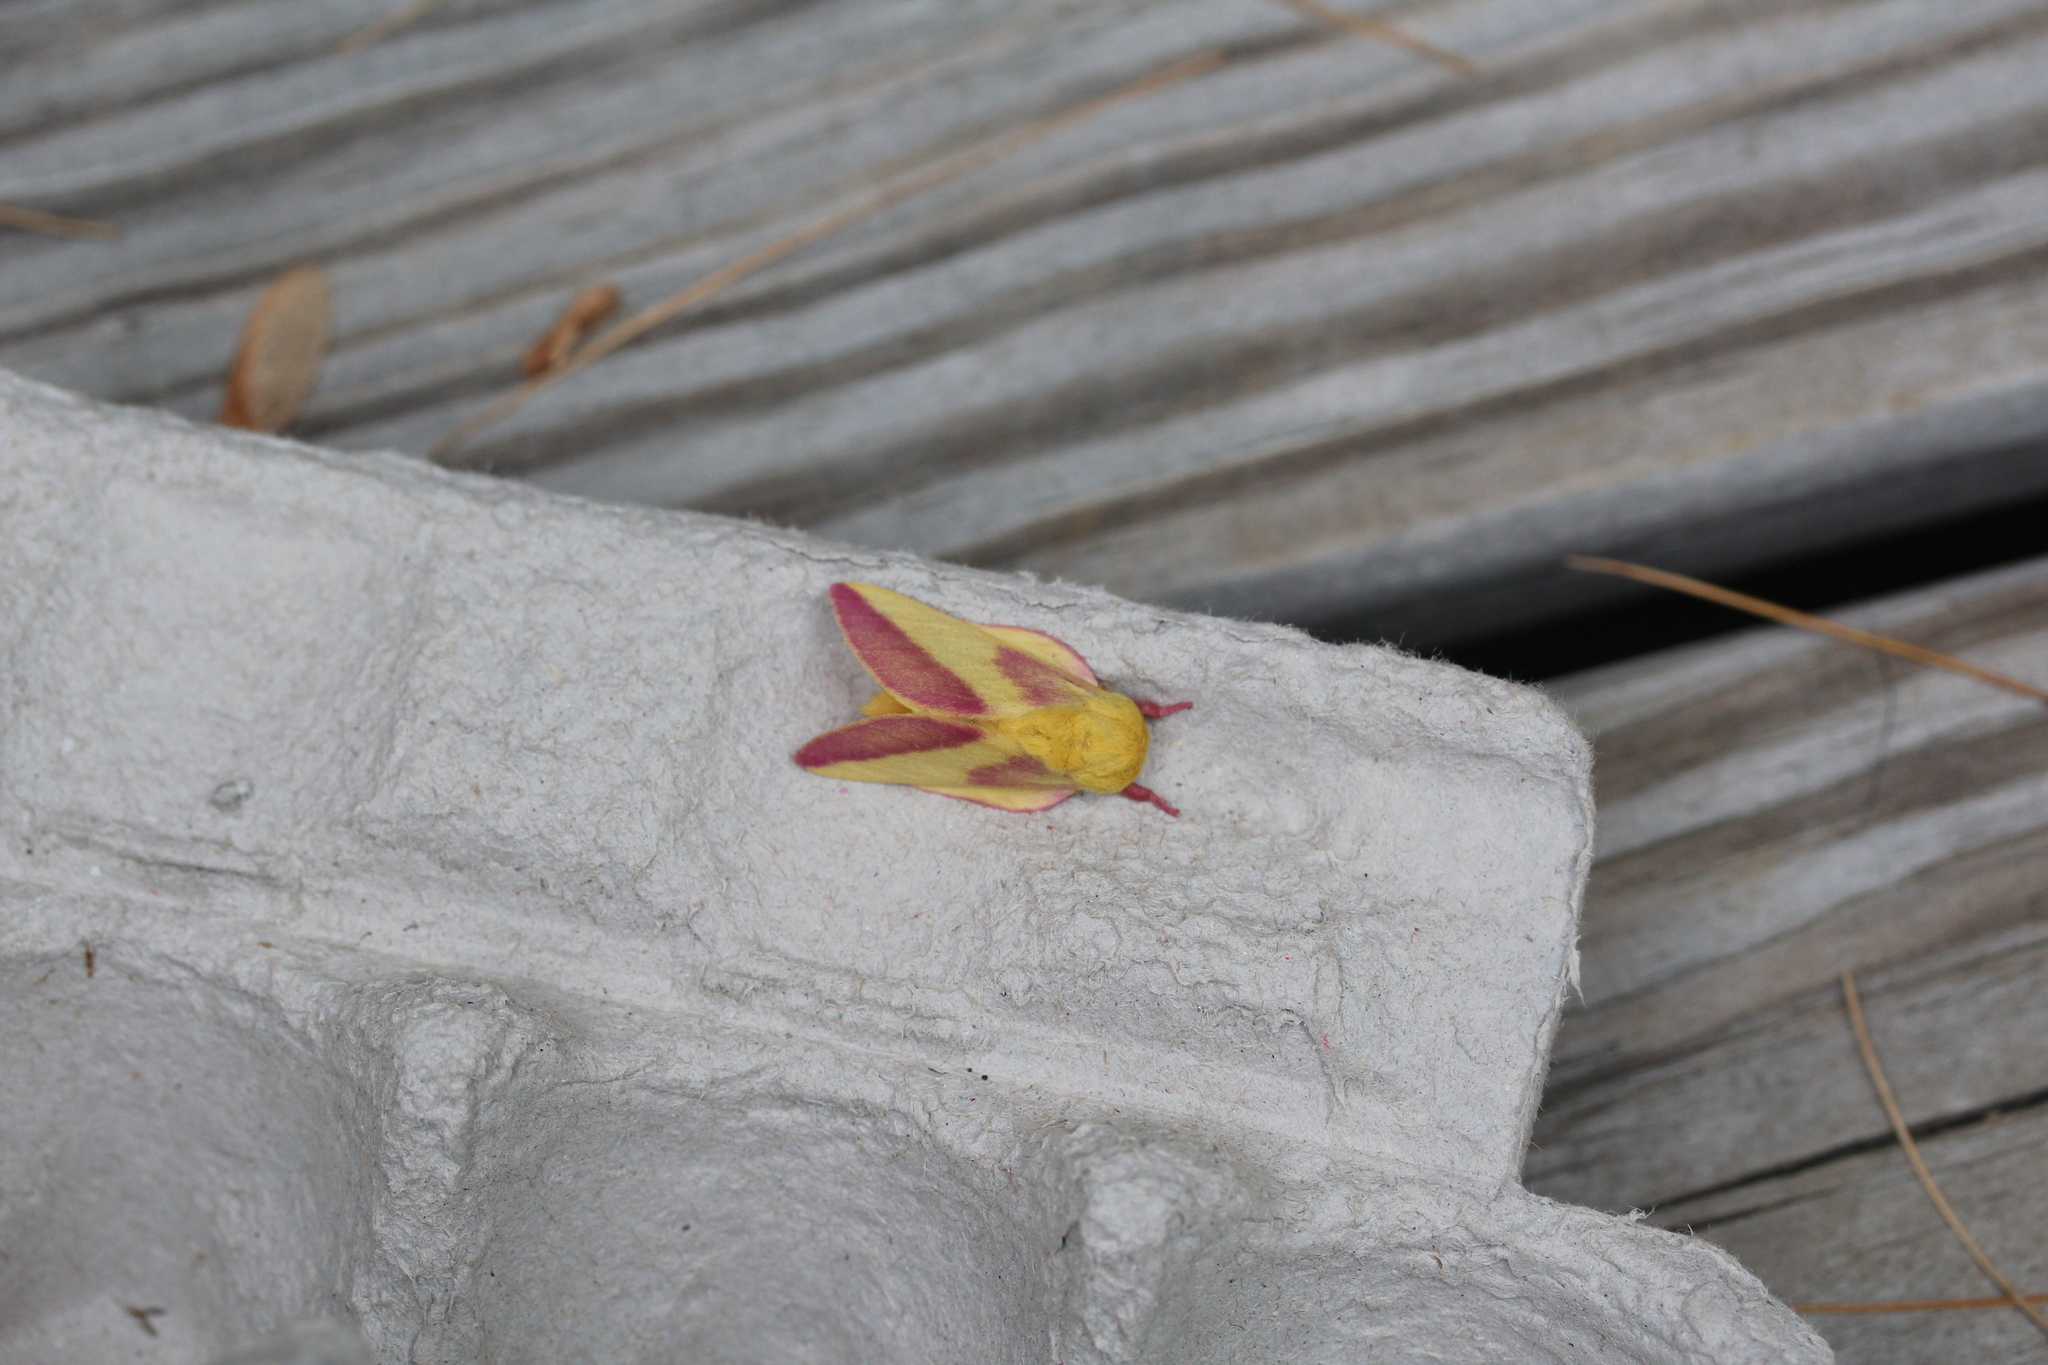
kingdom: Animalia
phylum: Arthropoda
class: Insecta
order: Lepidoptera
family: Saturniidae
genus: Dryocampa
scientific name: Dryocampa rubicunda
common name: Rosy maple moth
